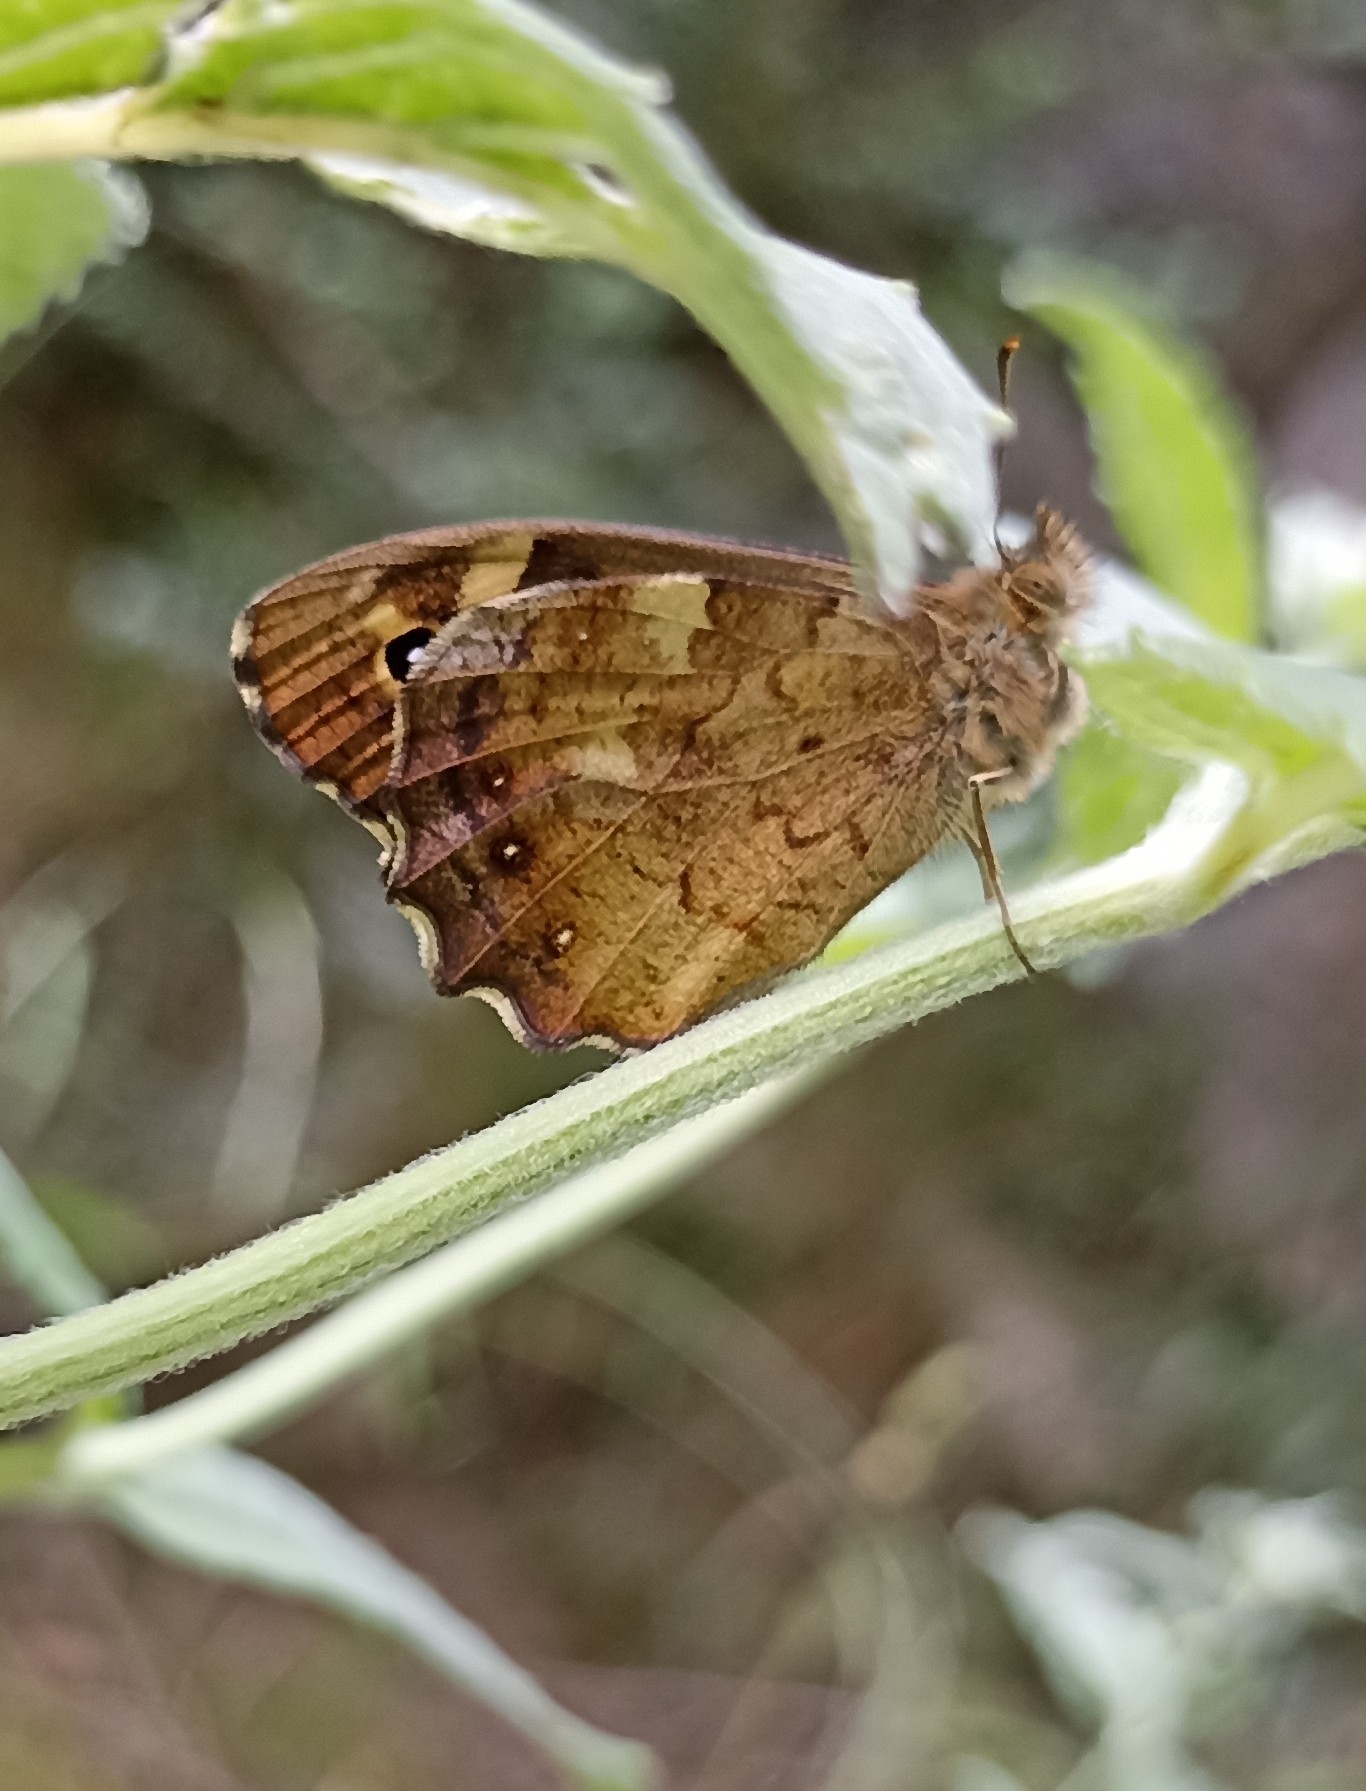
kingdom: Animalia
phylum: Arthropoda
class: Insecta
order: Lepidoptera
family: Nymphalidae
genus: Pararge
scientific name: Pararge aegeria
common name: Speckled wood
